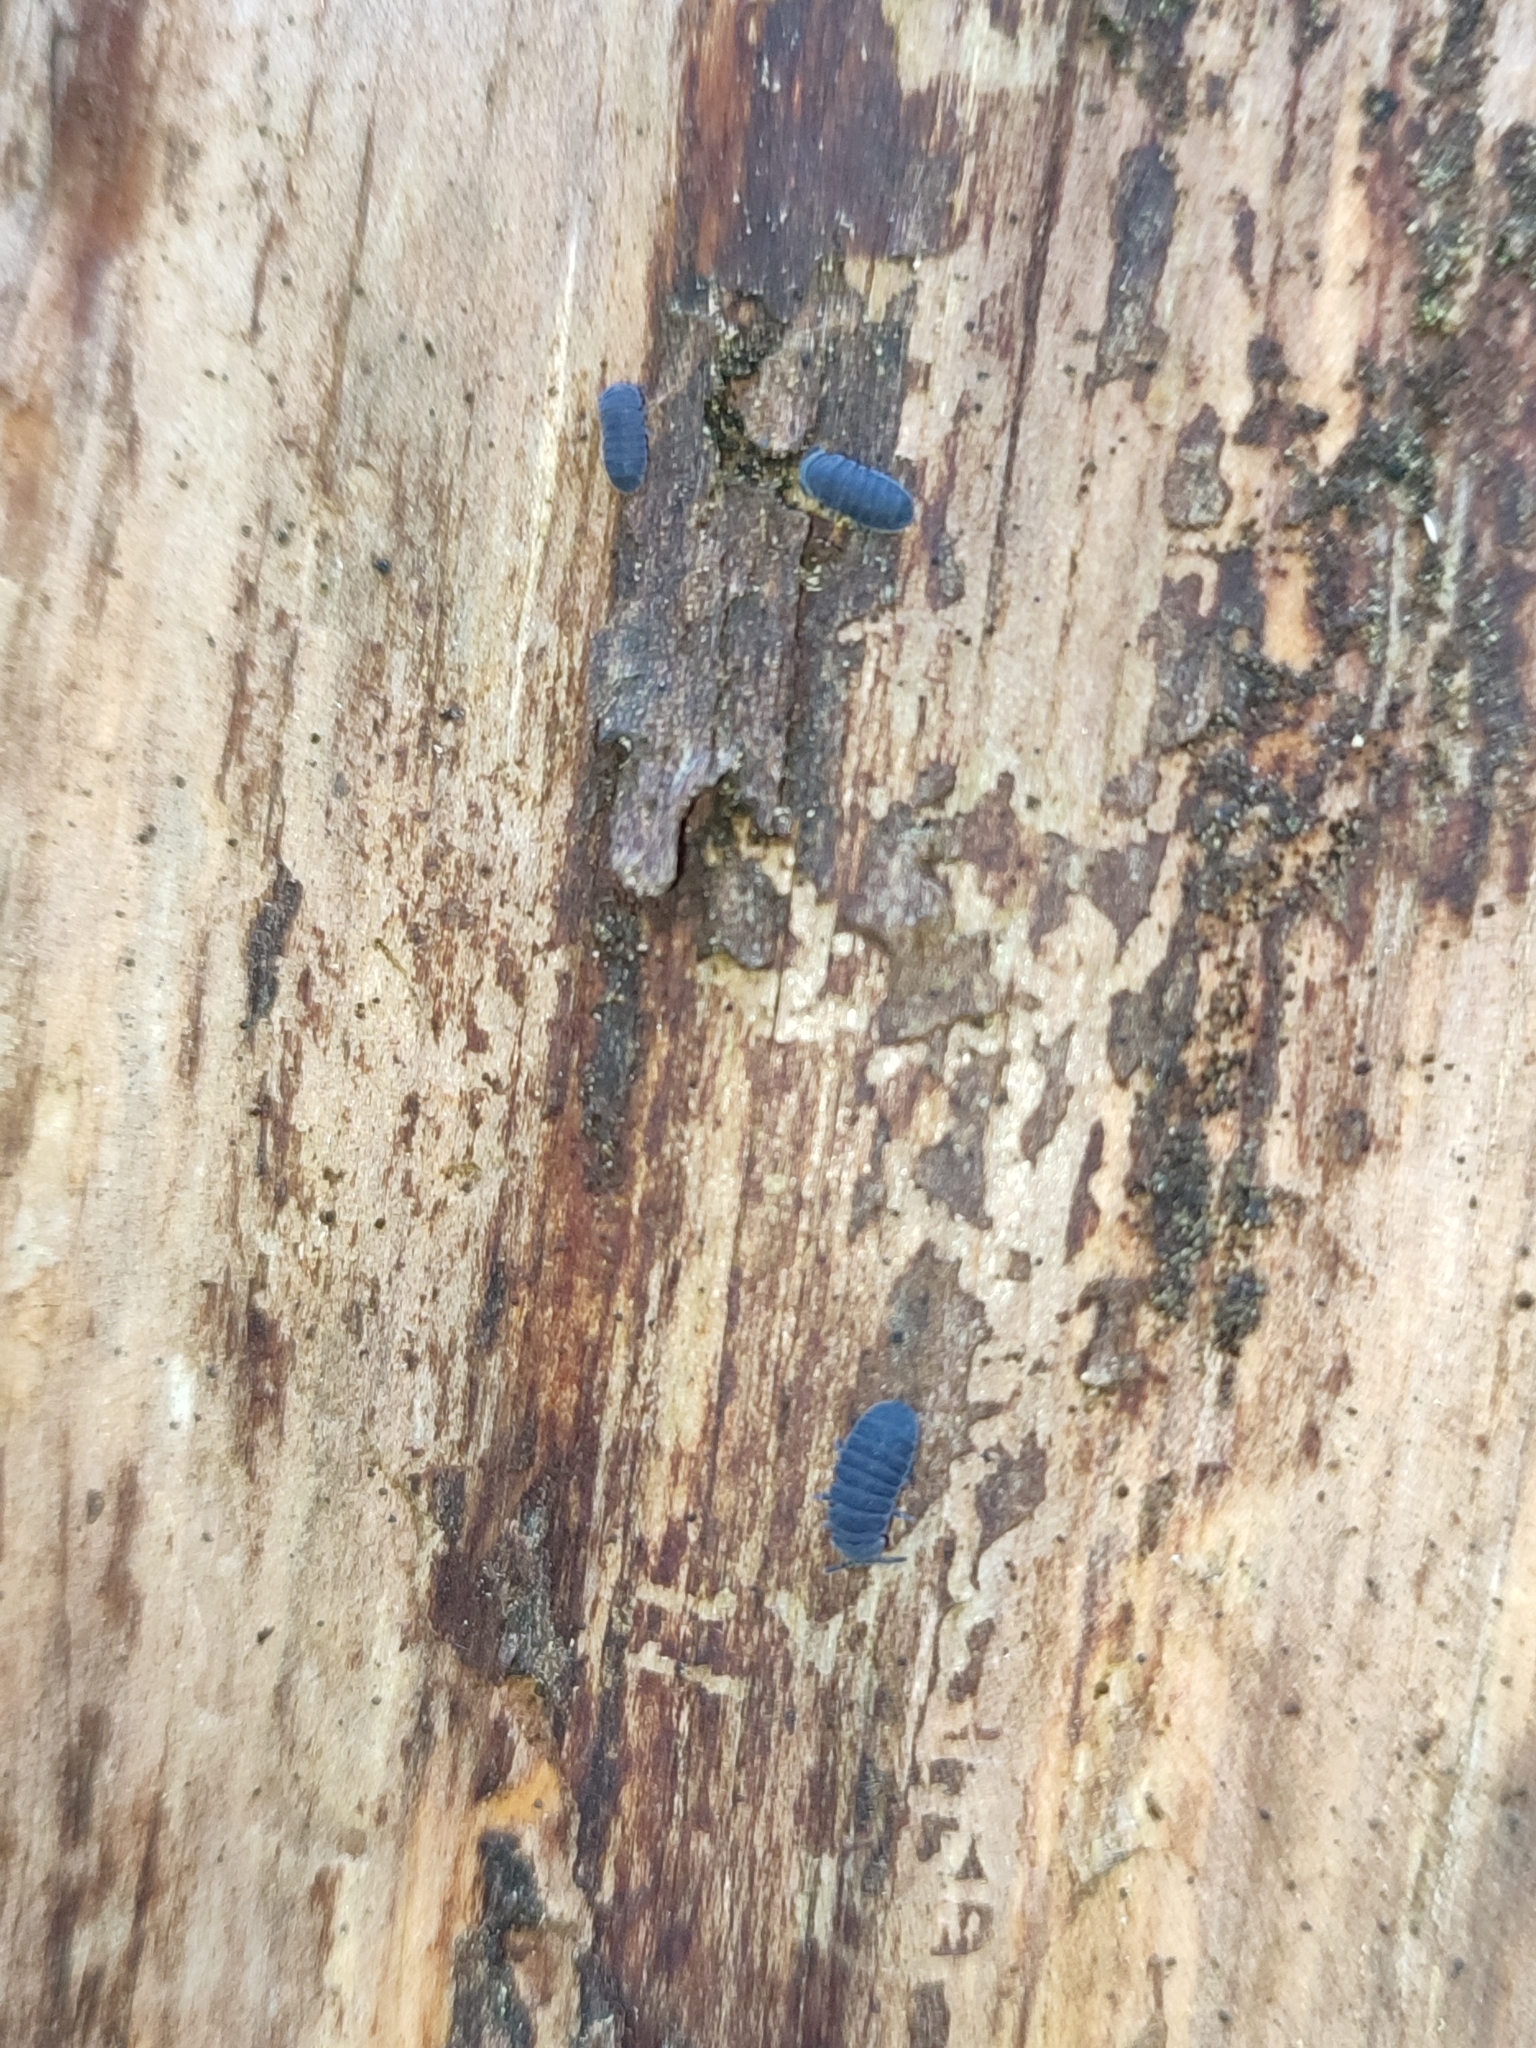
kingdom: Animalia
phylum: Arthropoda
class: Collembola
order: Poduromorpha
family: Onychiuridae
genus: Tetrodontophora
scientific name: Tetrodontophora bielanensis
